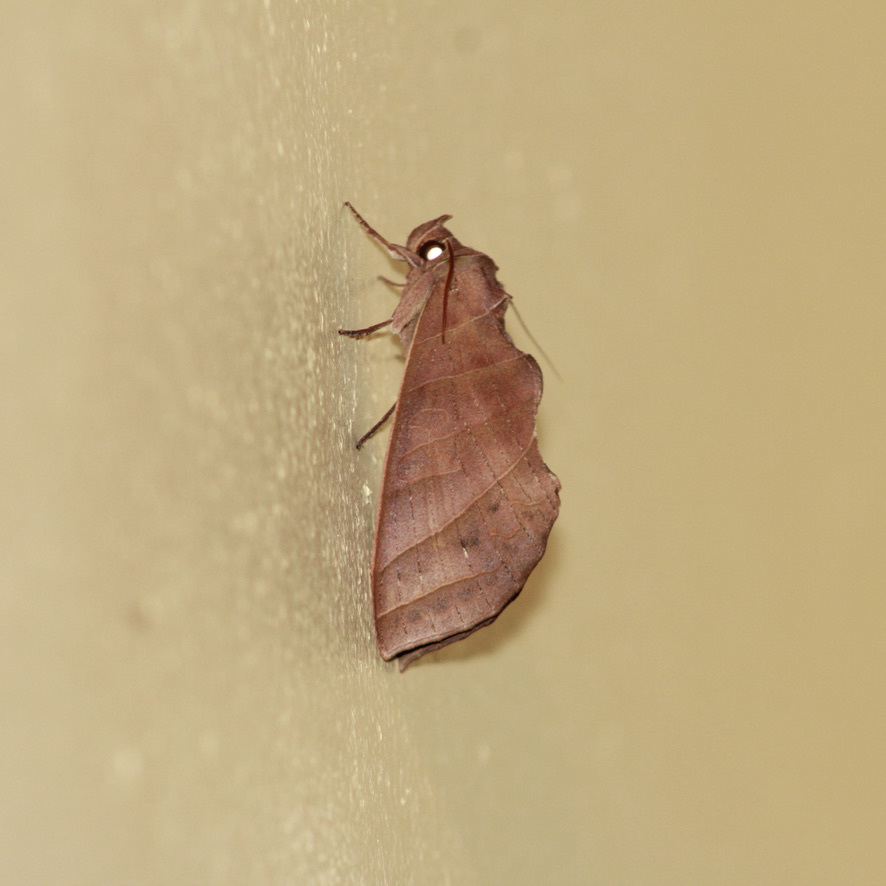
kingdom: Animalia
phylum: Arthropoda
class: Insecta
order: Lepidoptera
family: Notodontidae
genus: Antaea
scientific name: Antaea juturna
